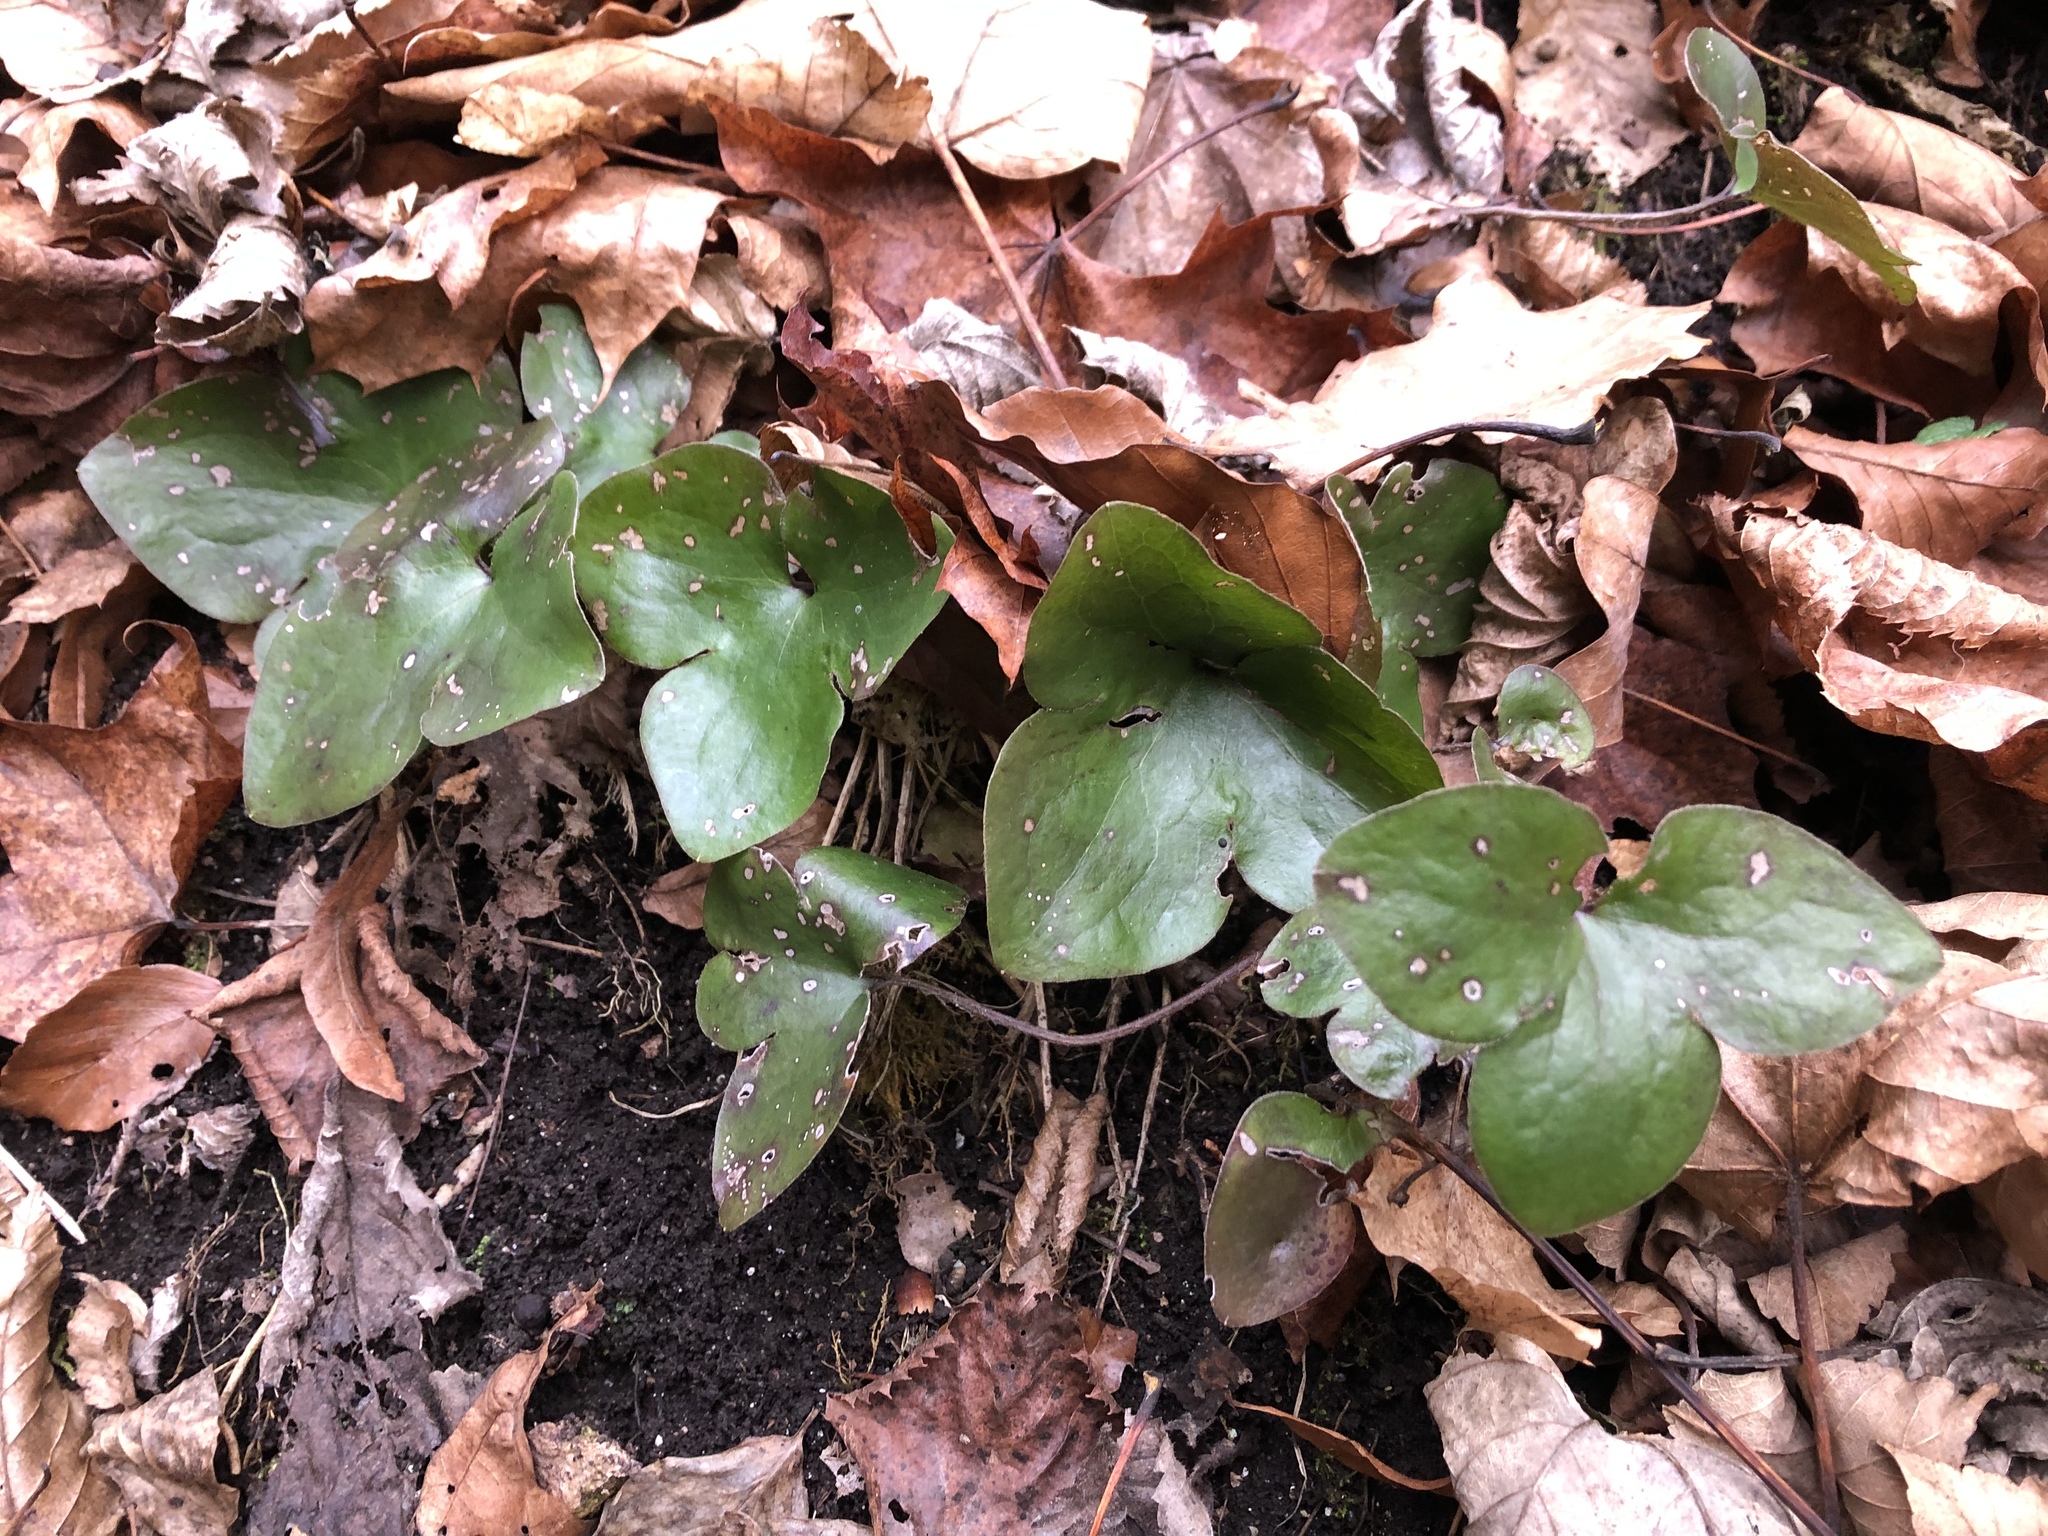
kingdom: Plantae
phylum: Tracheophyta
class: Magnoliopsida
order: Ranunculales
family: Ranunculaceae
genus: Hepatica
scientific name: Hepatica nobilis
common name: Liverleaf
